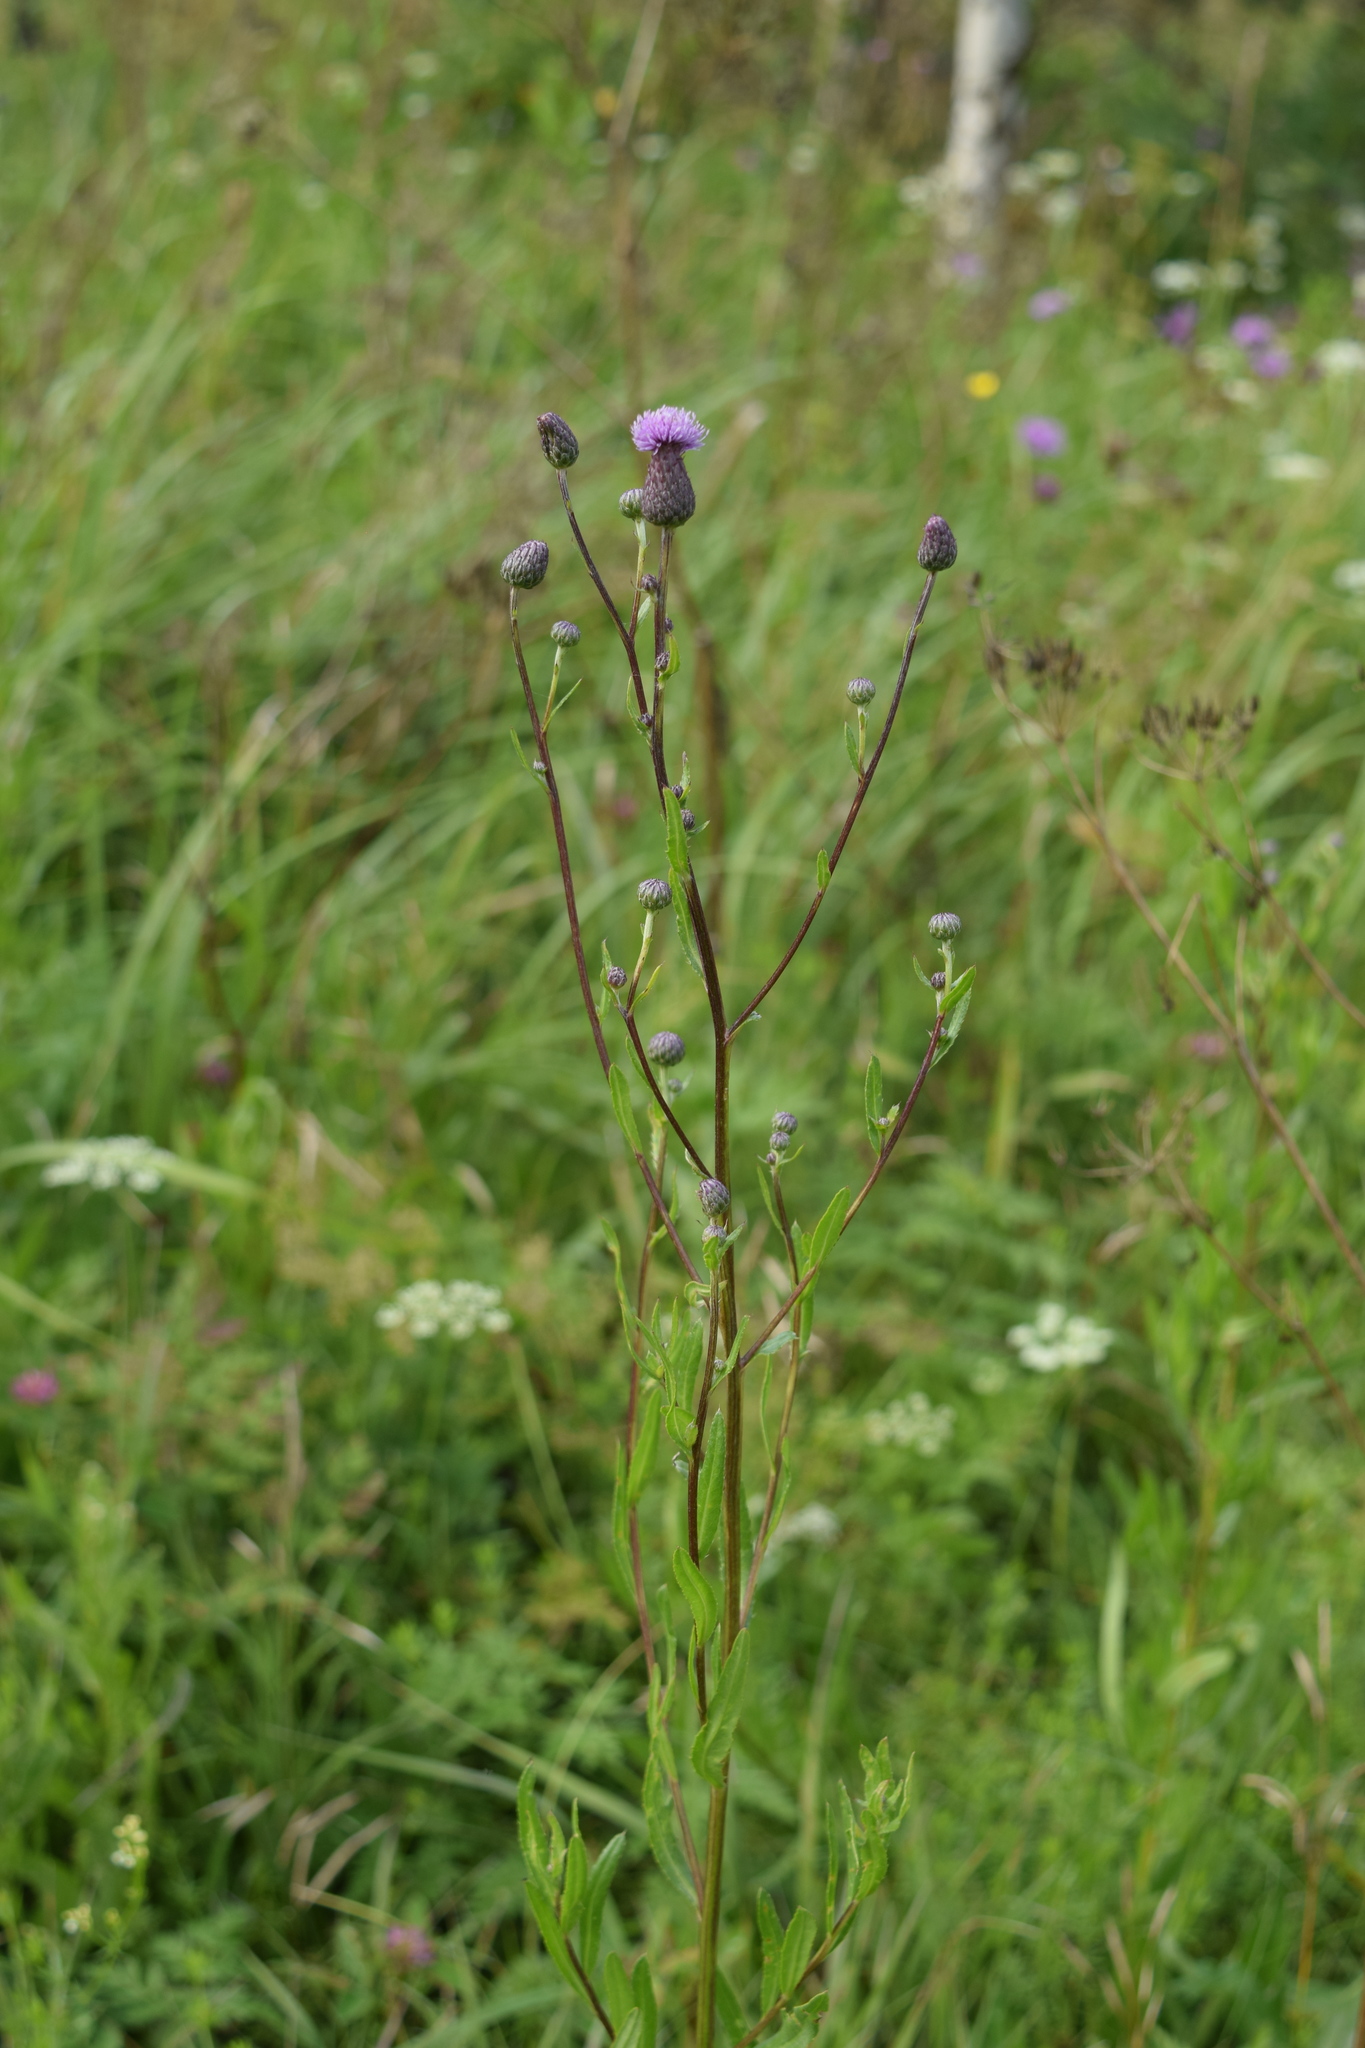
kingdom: Plantae
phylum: Tracheophyta
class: Magnoliopsida
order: Asterales
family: Asteraceae
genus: Cirsium
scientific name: Cirsium arvense
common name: Creeping thistle
